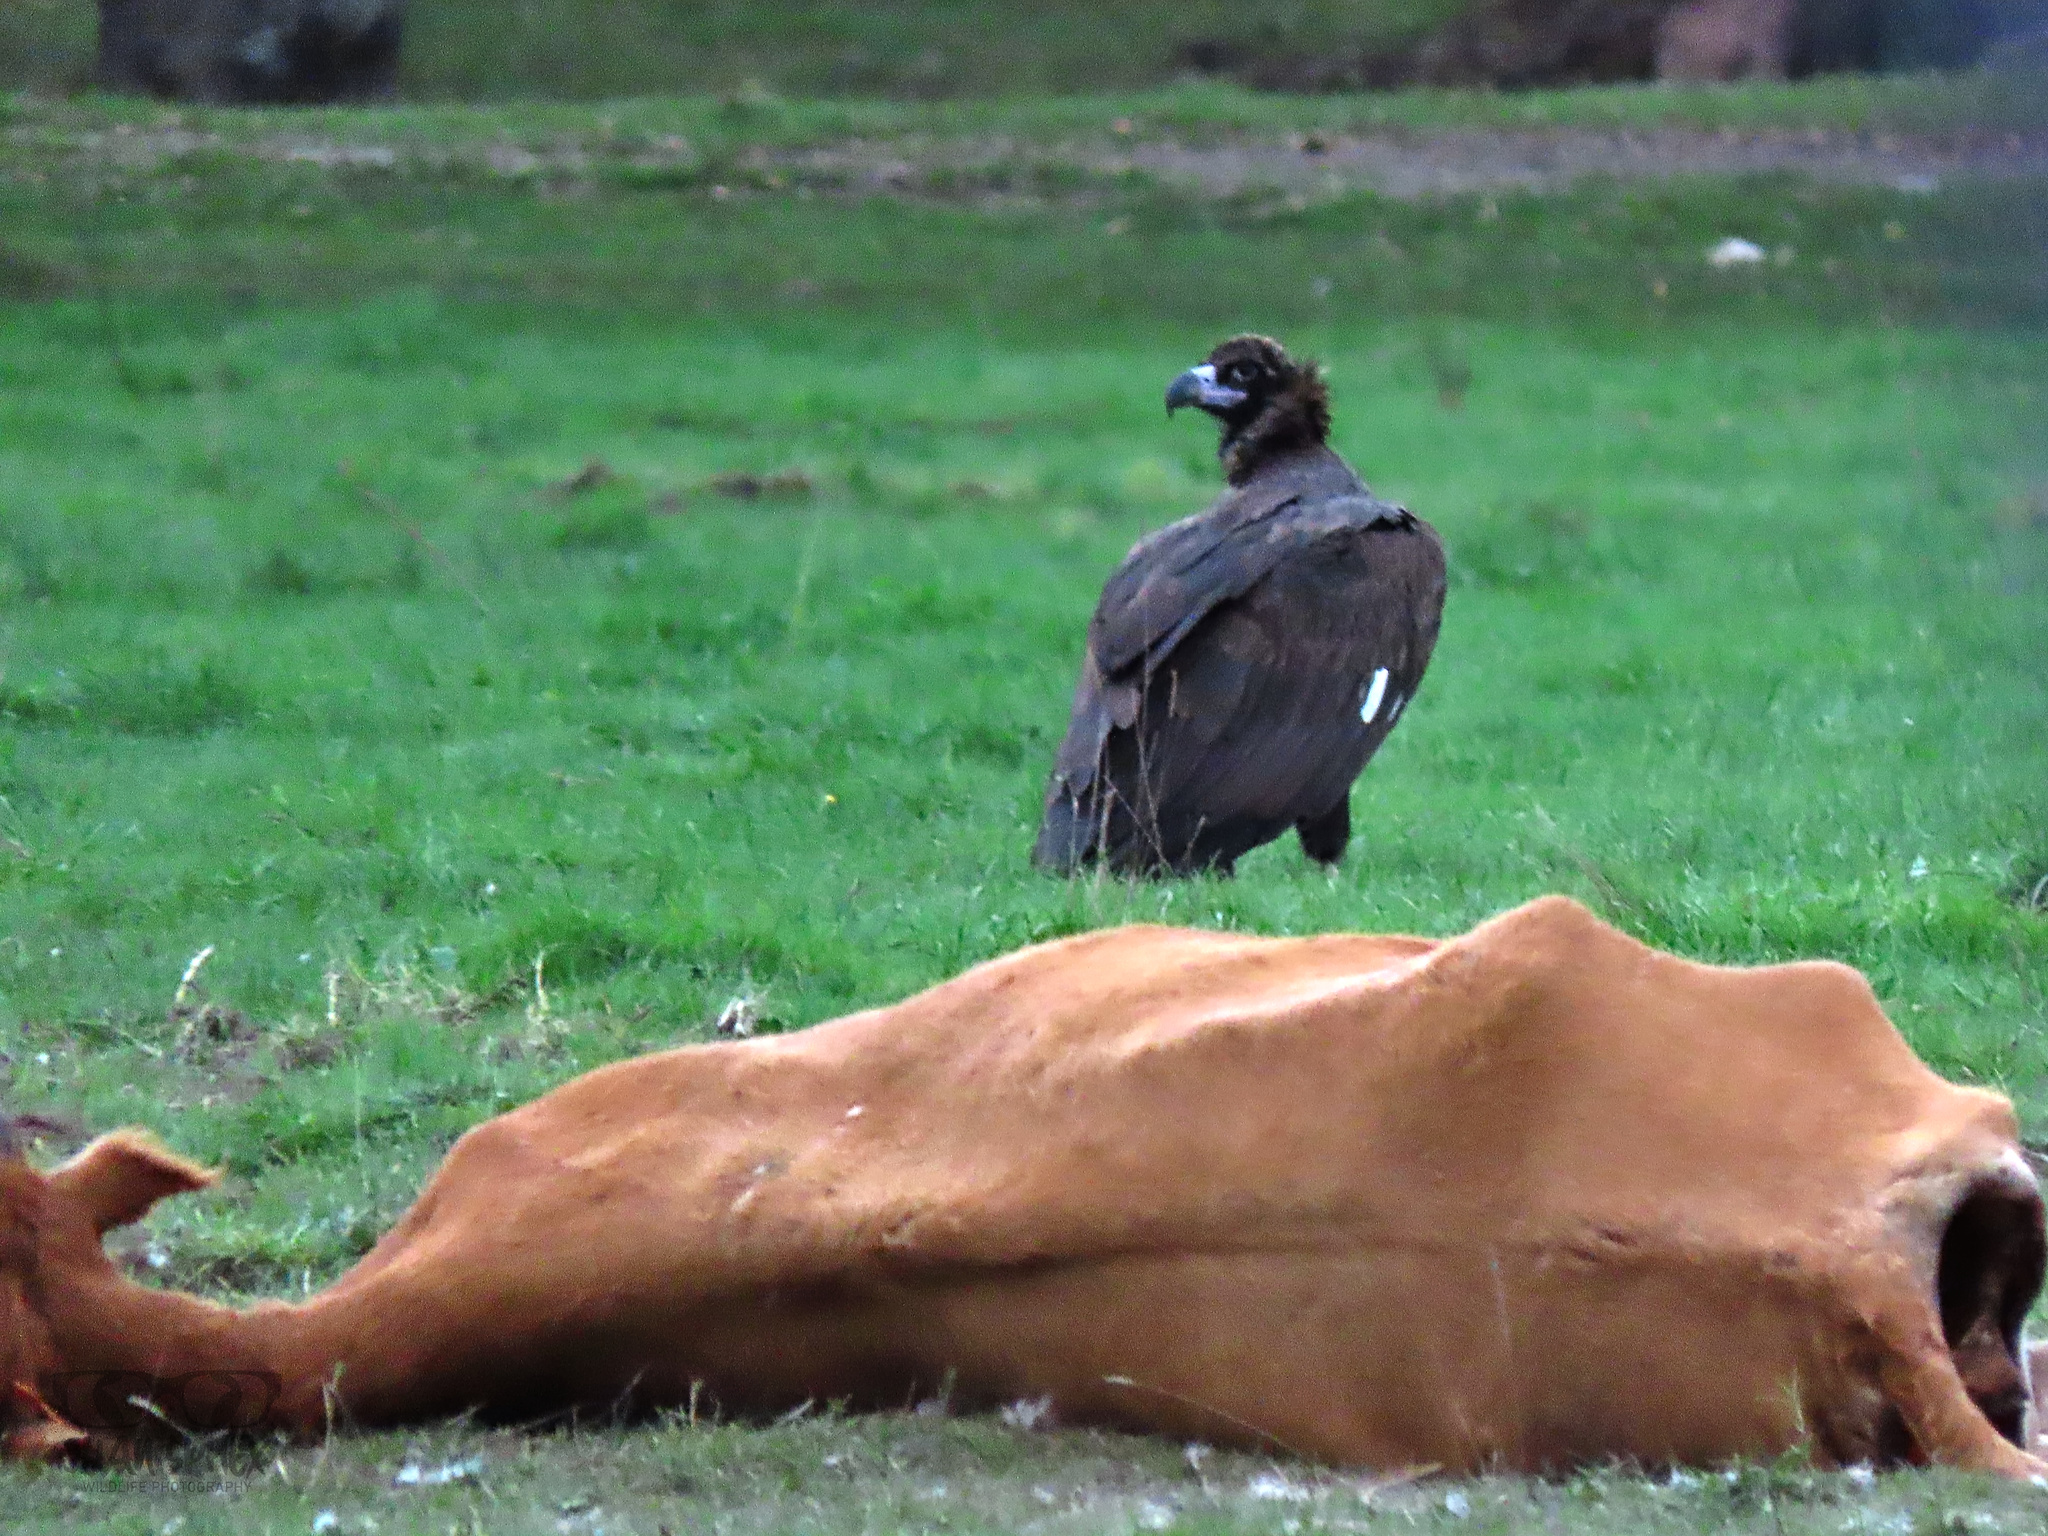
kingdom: Animalia
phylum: Chordata
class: Aves
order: Accipitriformes
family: Accipitridae
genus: Aegypius
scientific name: Aegypius monachus
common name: Cinereous vulture
